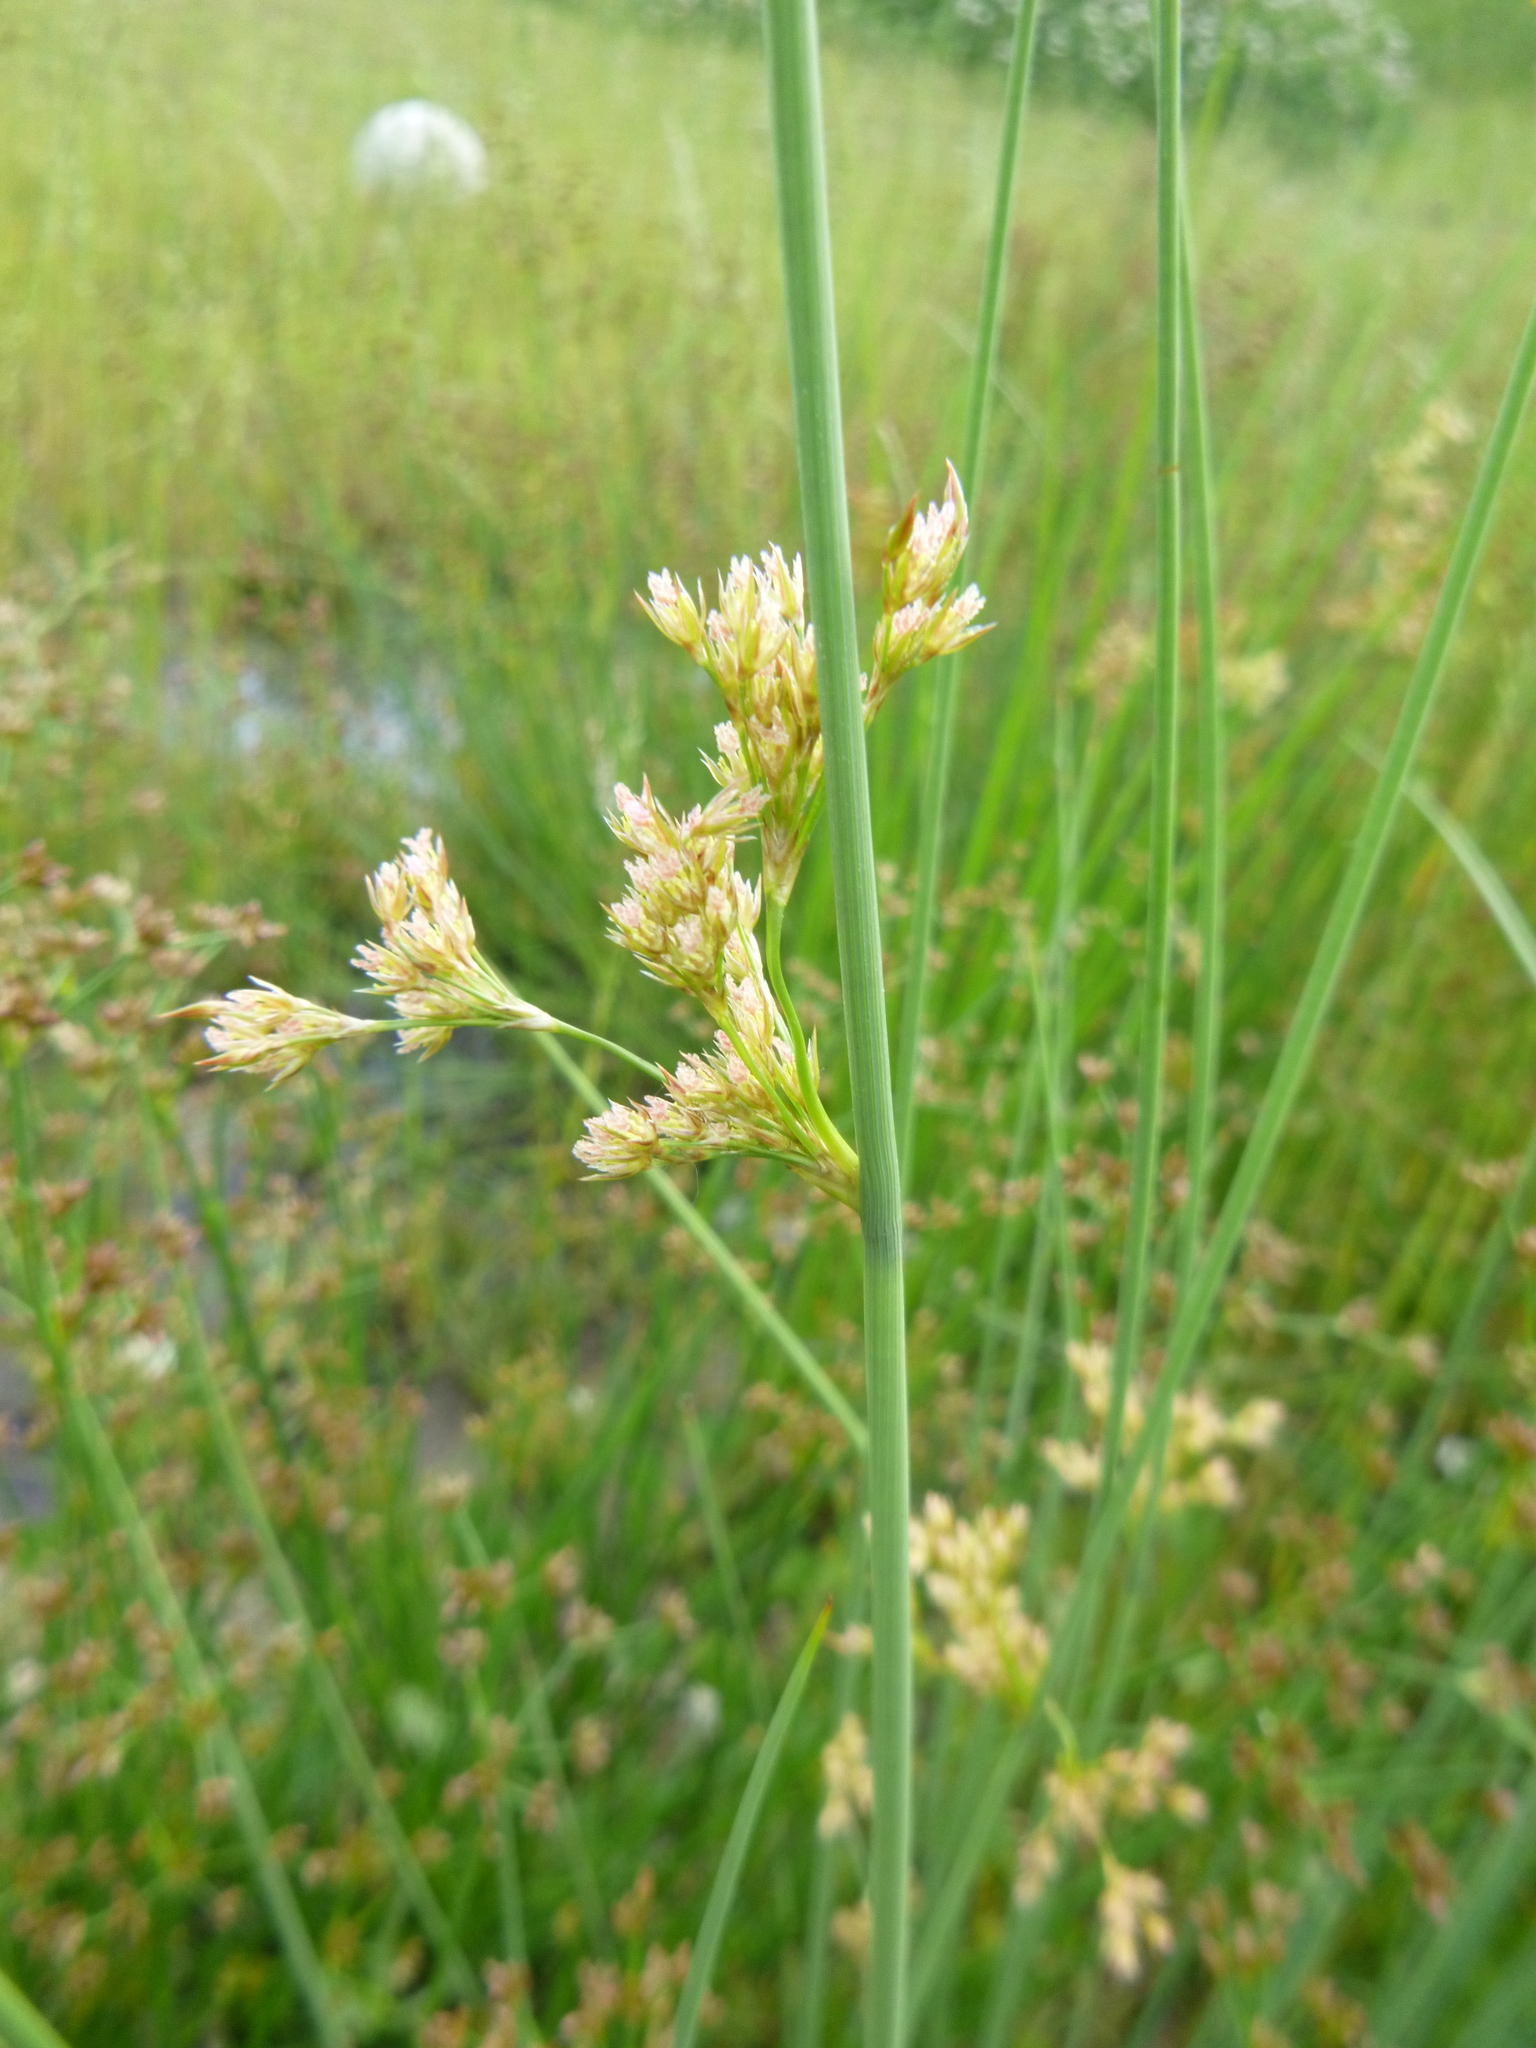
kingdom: Plantae
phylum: Tracheophyta
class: Liliopsida
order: Poales
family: Juncaceae
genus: Juncus
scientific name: Juncus inflexus
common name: Hard rush
